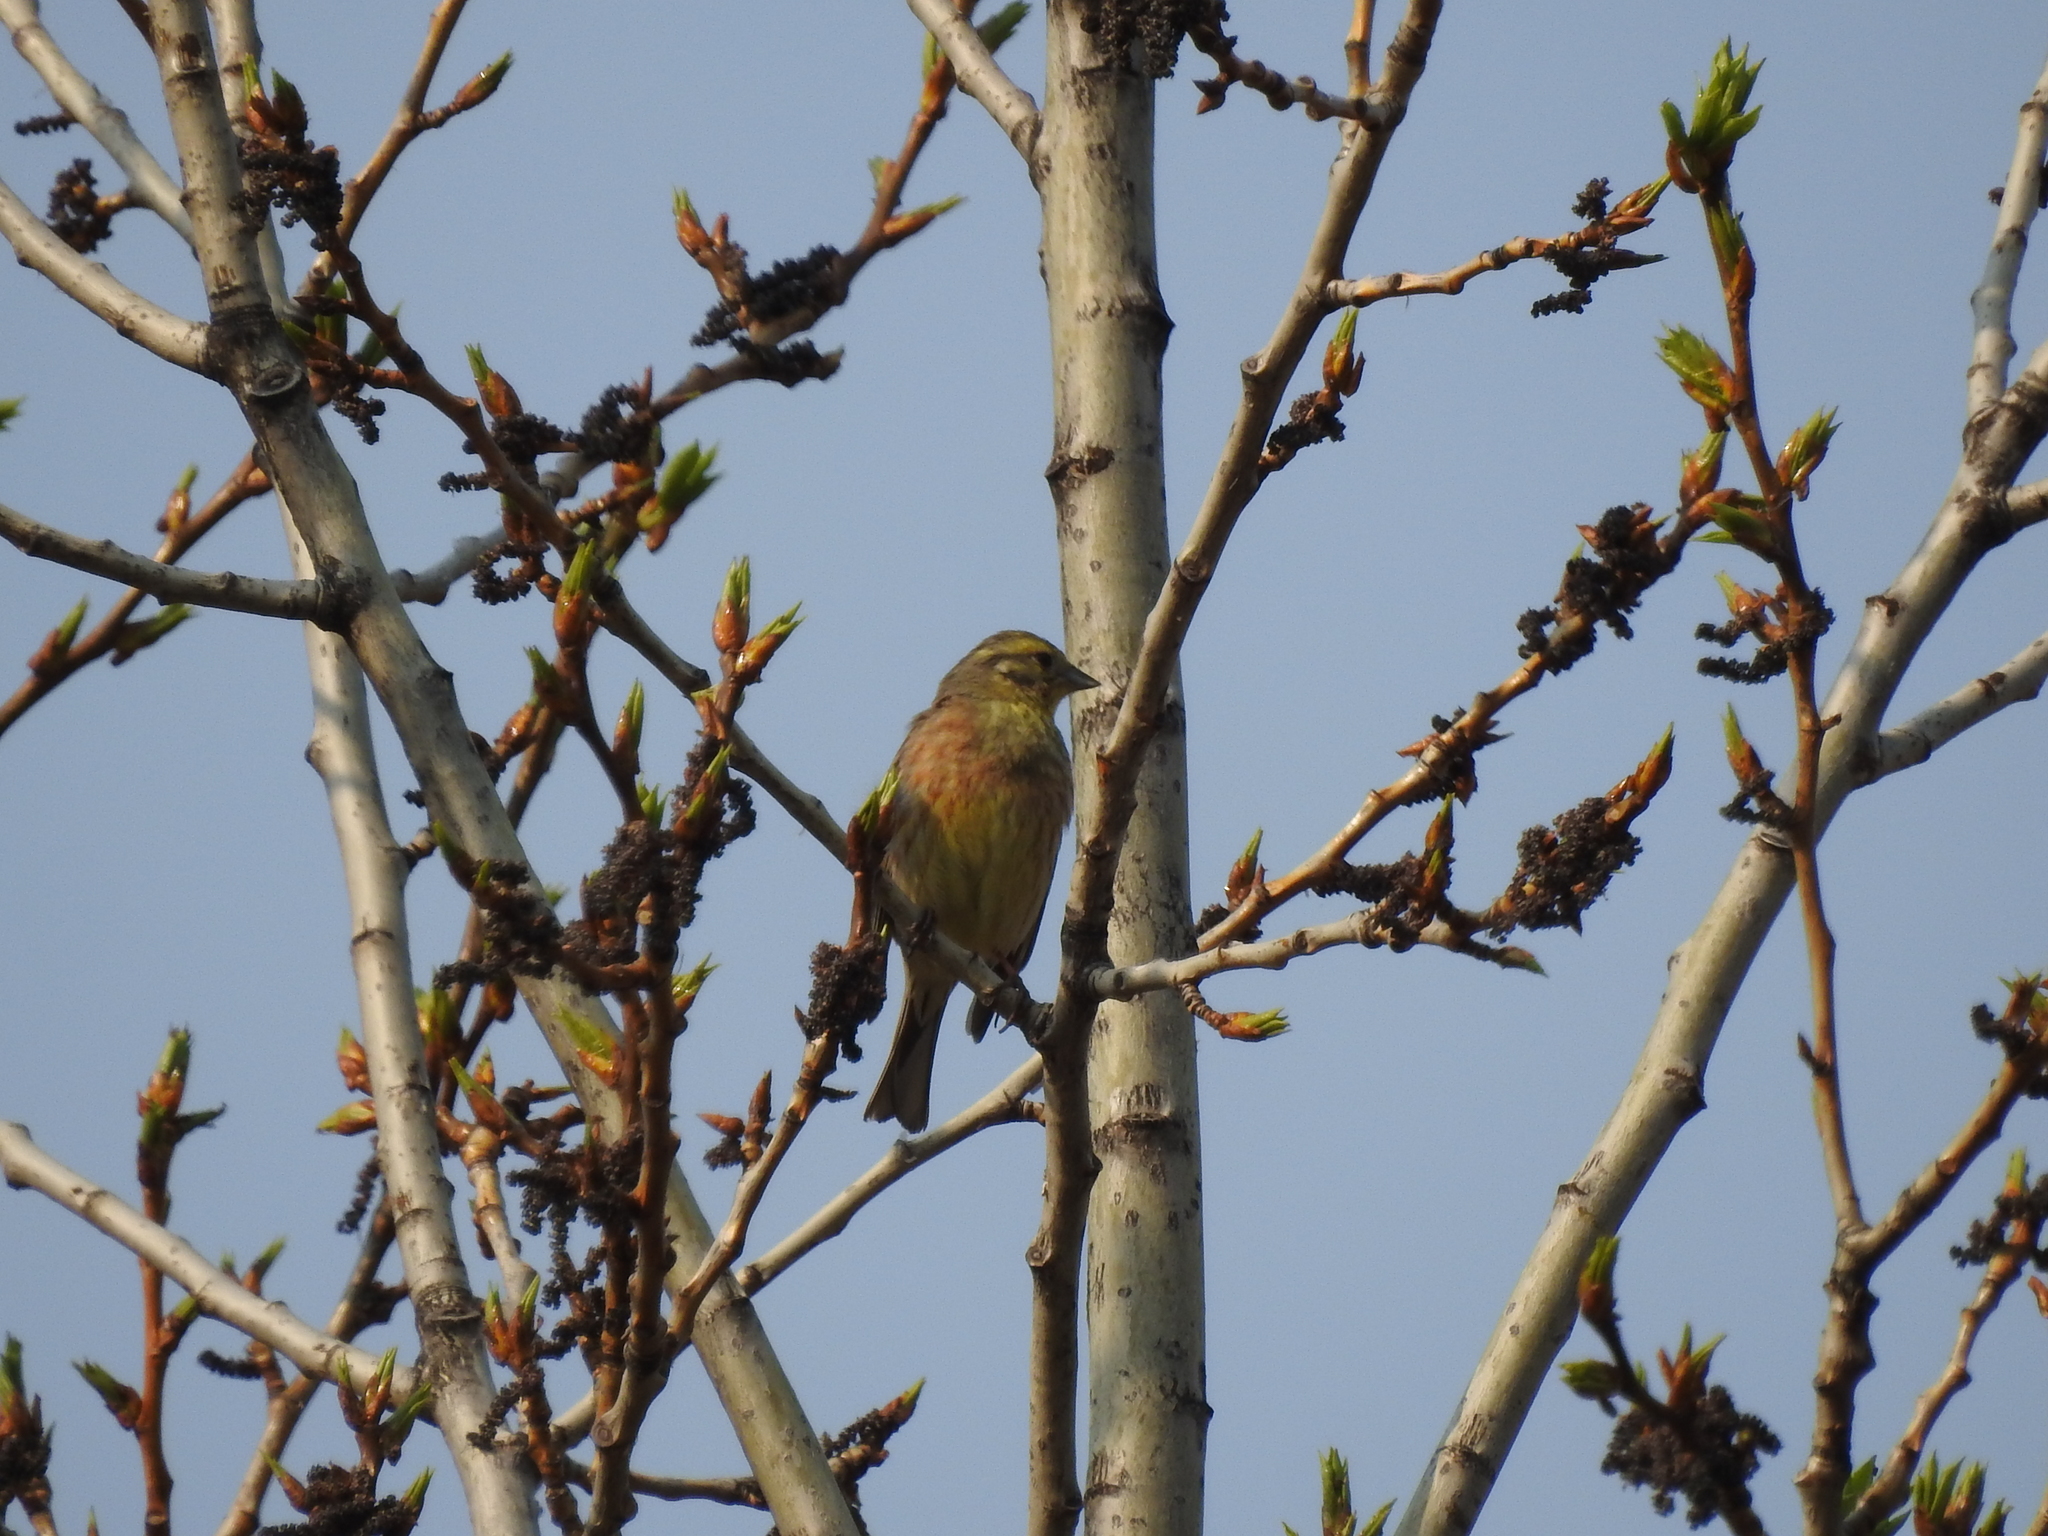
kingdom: Animalia
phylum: Chordata
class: Aves
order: Passeriformes
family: Emberizidae
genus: Emberiza
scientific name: Emberiza citrinella
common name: Yellowhammer
